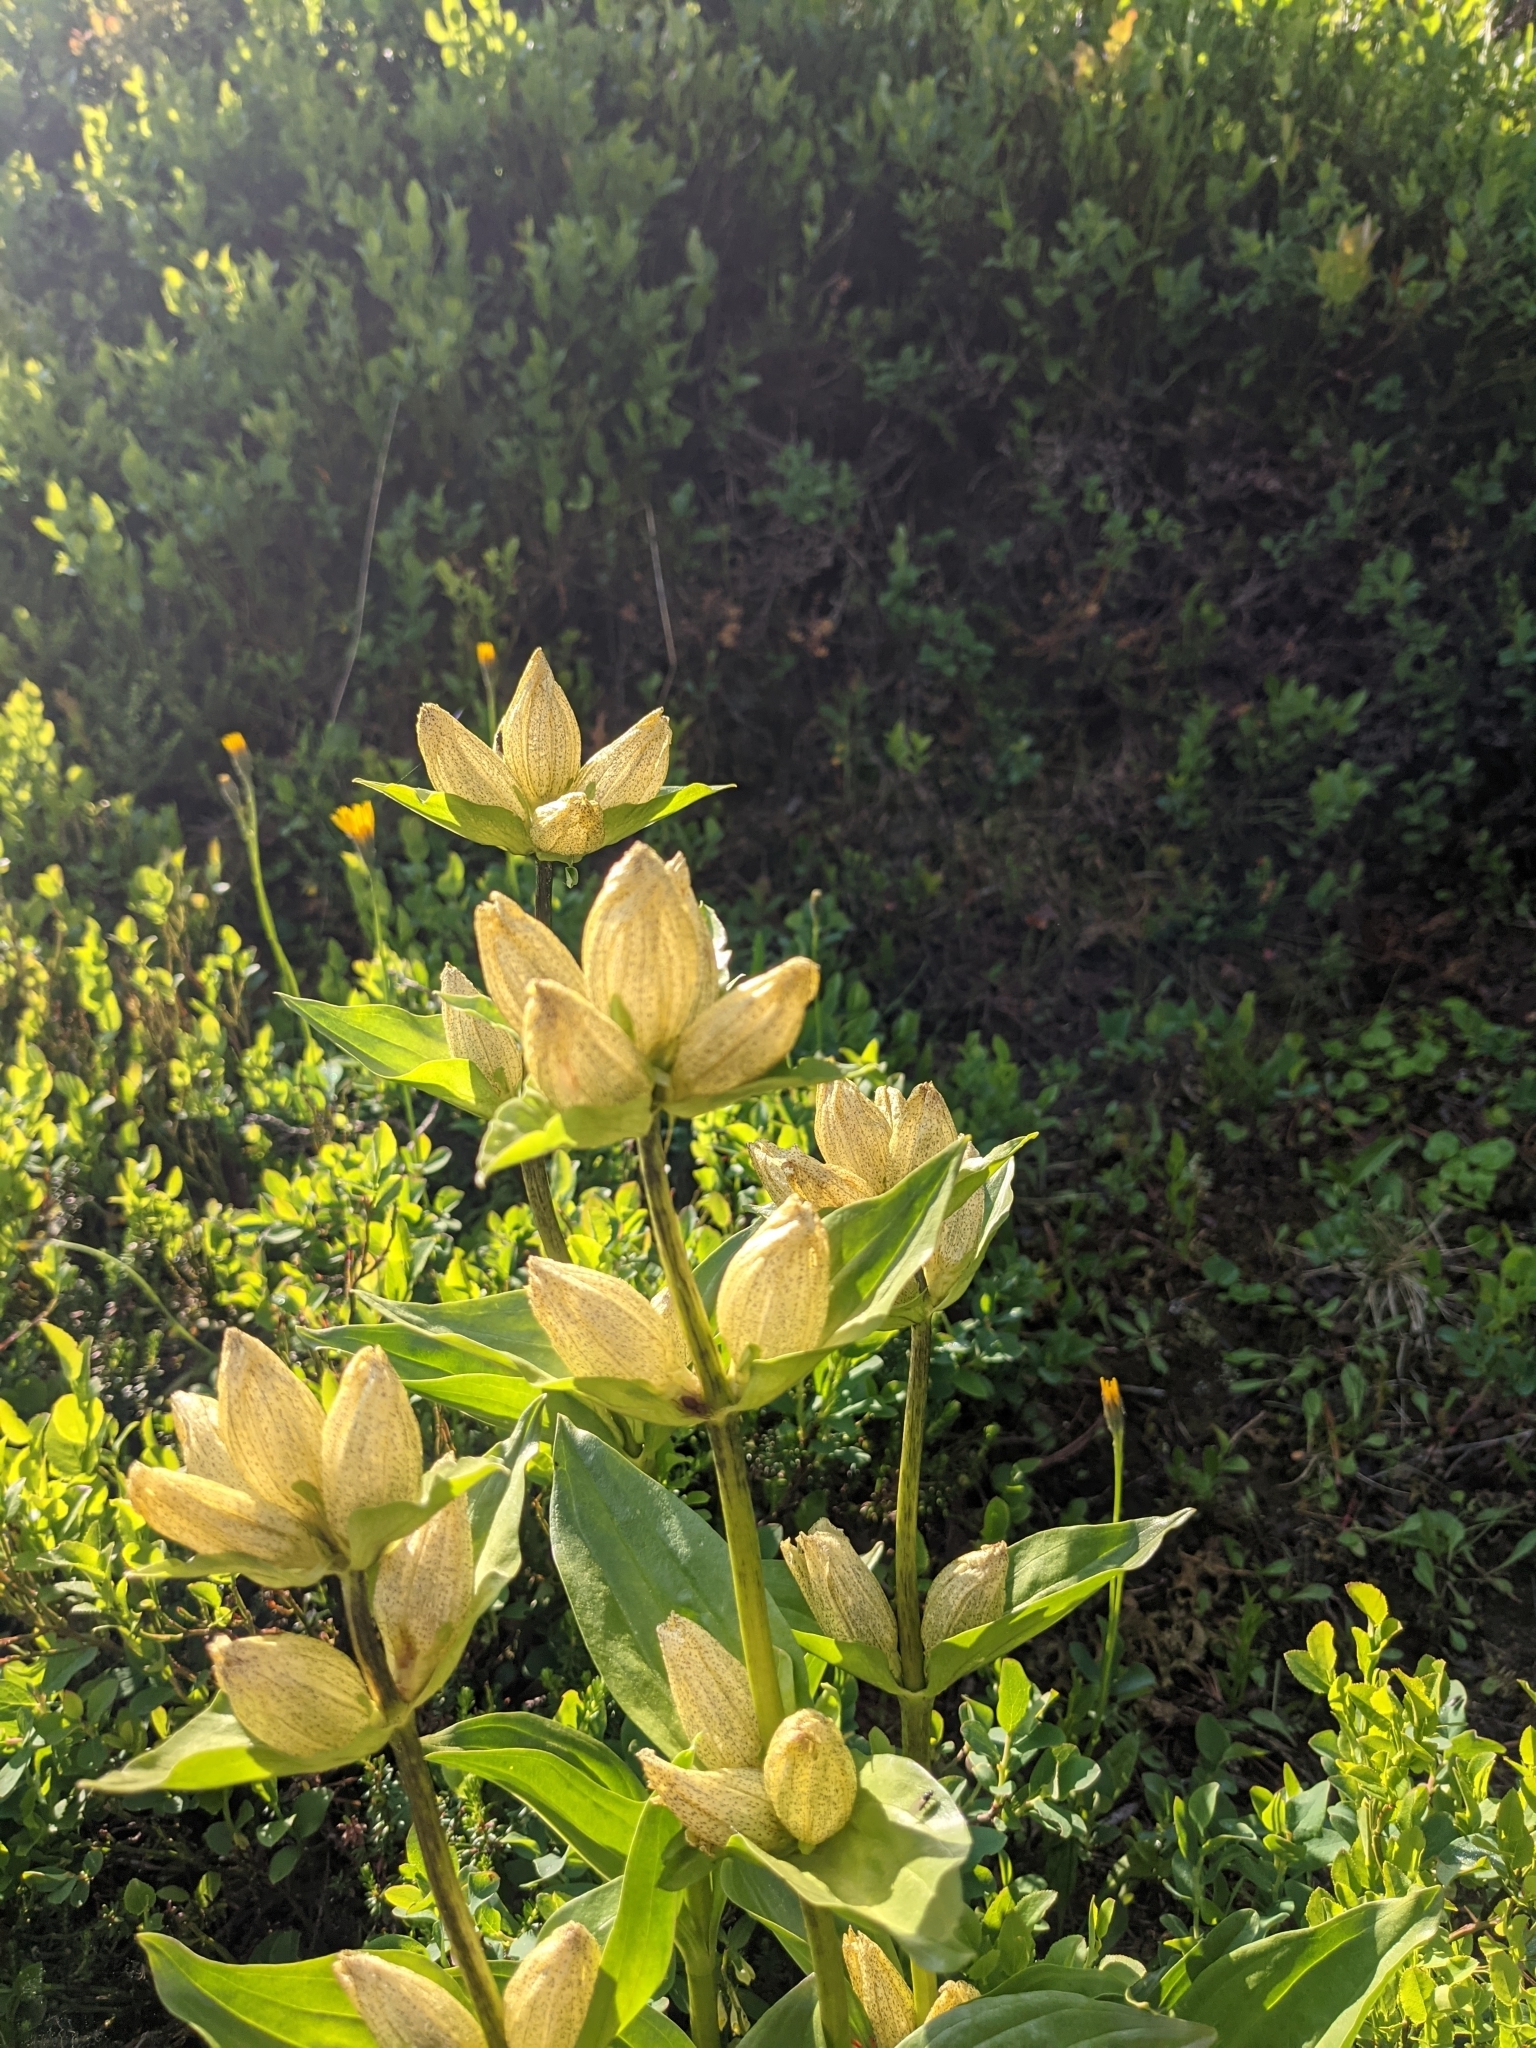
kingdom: Plantae
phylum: Tracheophyta
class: Magnoliopsida
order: Gentianales
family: Gentianaceae
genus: Gentiana
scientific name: Gentiana punctata
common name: Spotted gentian
